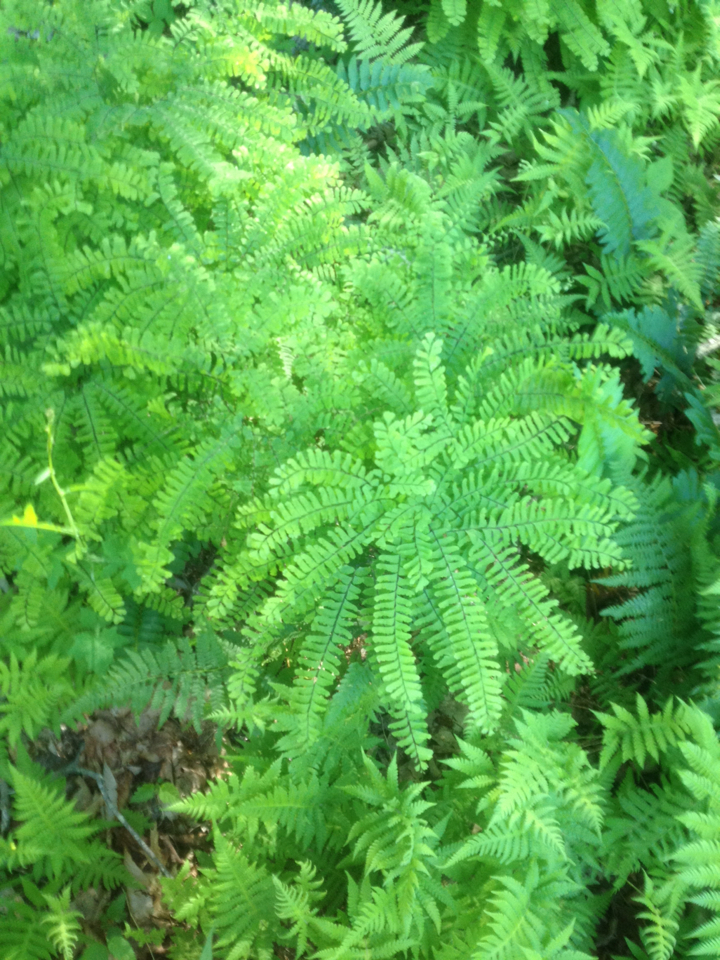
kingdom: Plantae
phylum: Tracheophyta
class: Polypodiopsida
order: Polypodiales
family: Pteridaceae
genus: Adiantum
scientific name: Adiantum pedatum
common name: Five-finger fern
